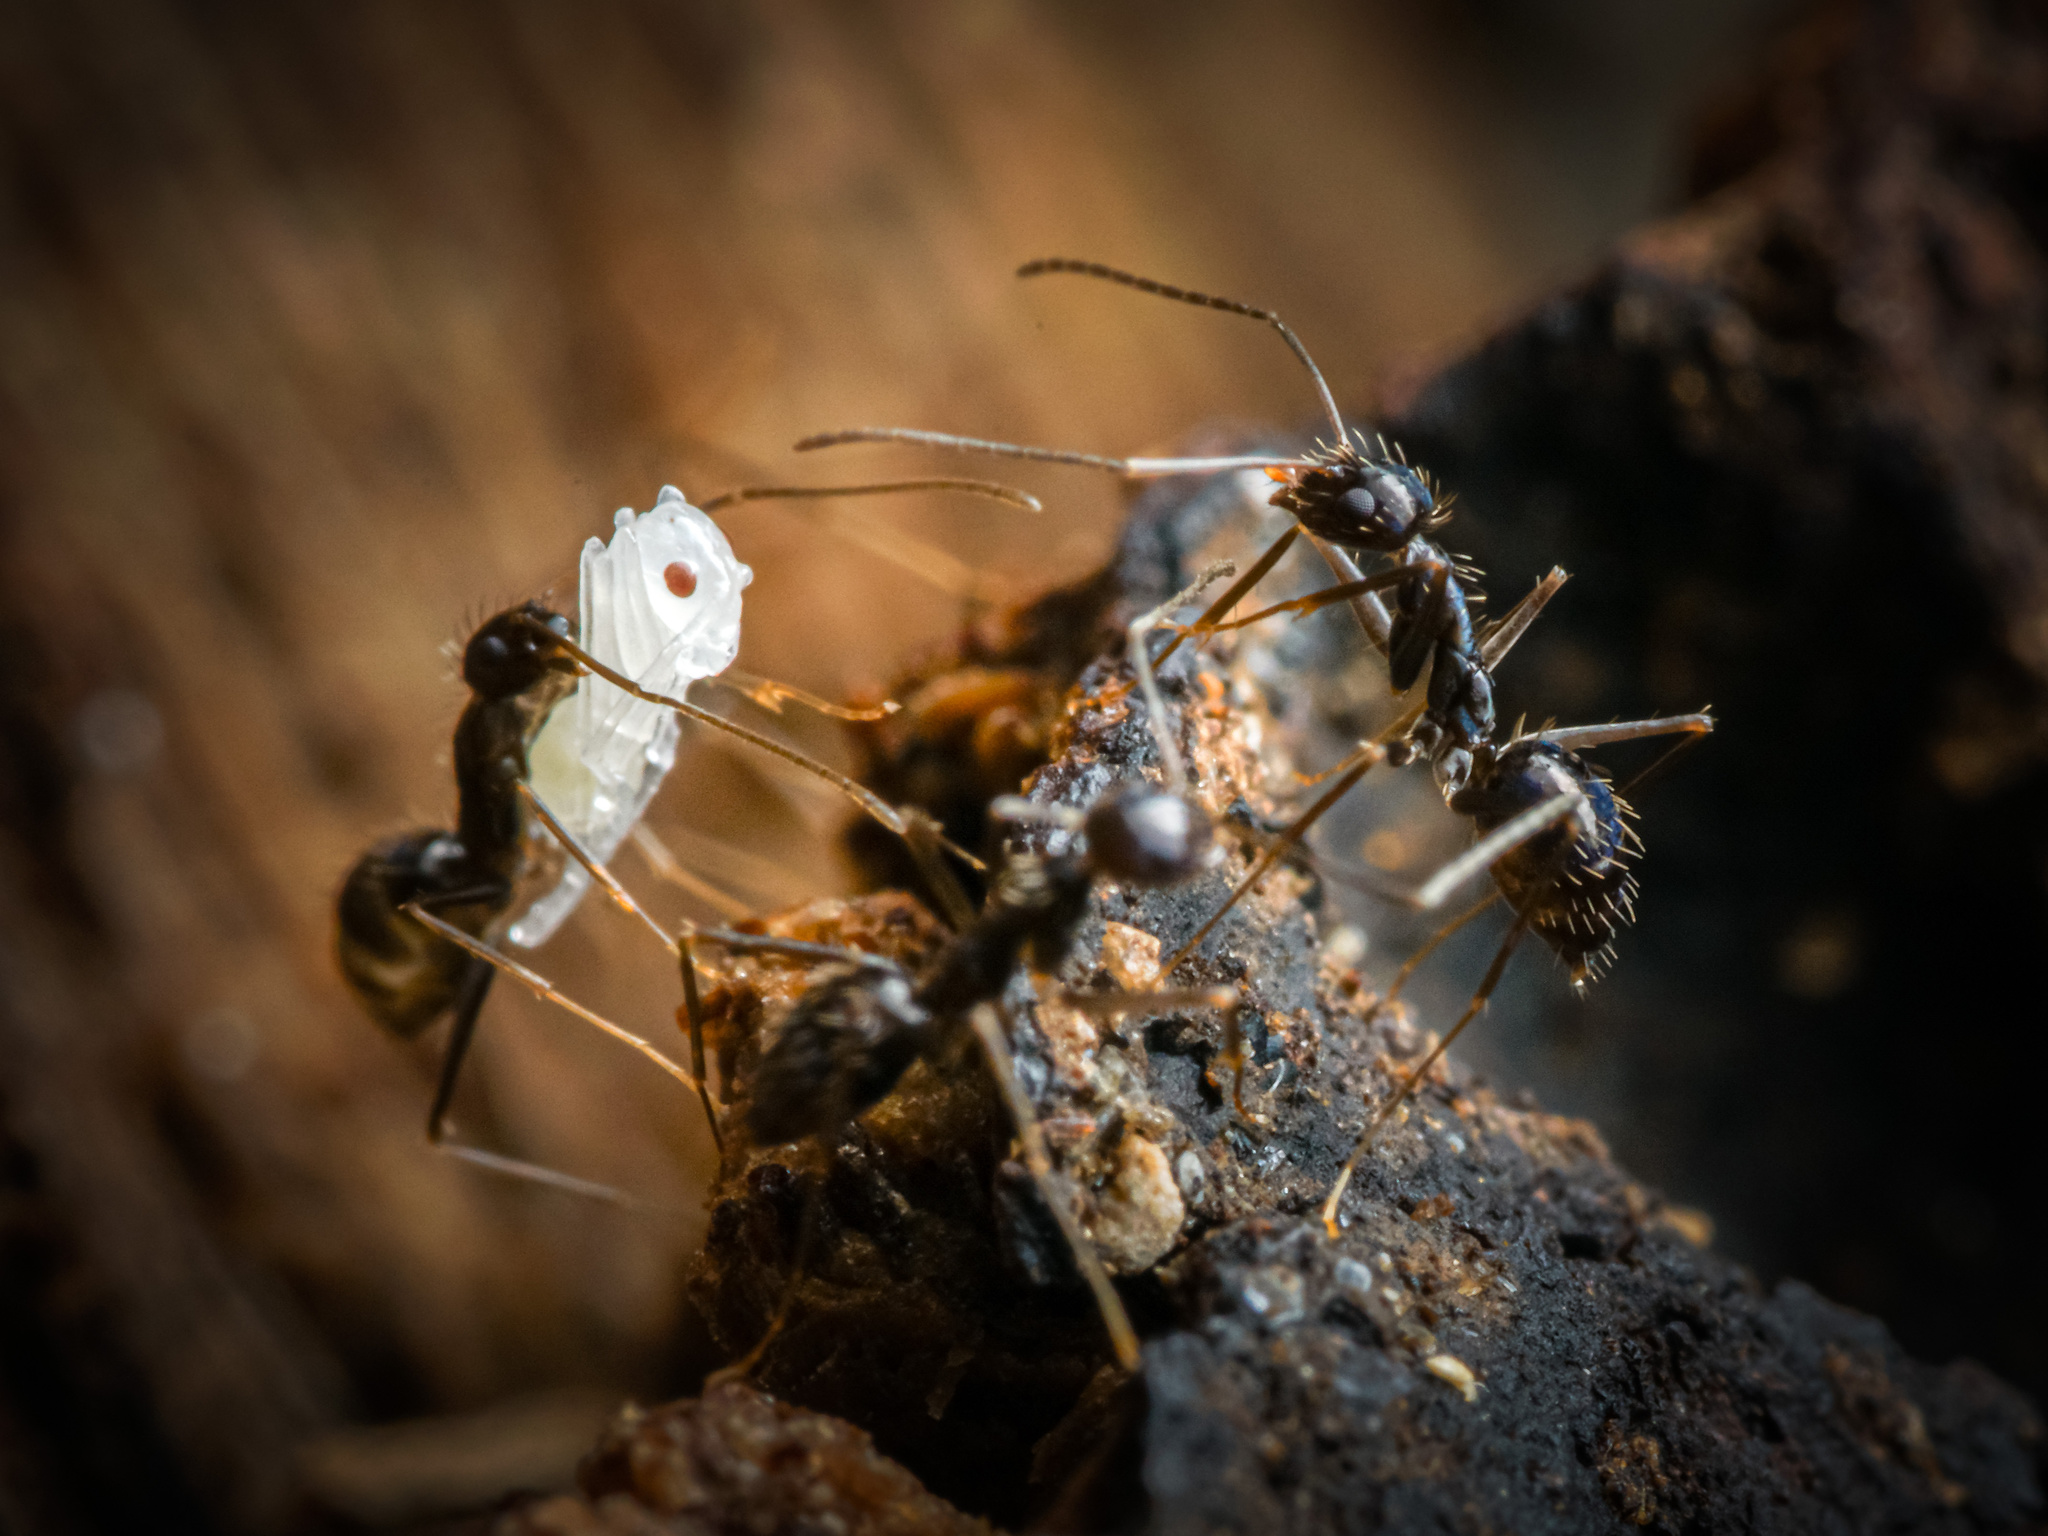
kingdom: Animalia
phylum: Arthropoda
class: Insecta
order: Hymenoptera
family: Formicidae
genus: Paratrechina
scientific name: Paratrechina longicornis
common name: Longhorned crazy ant
